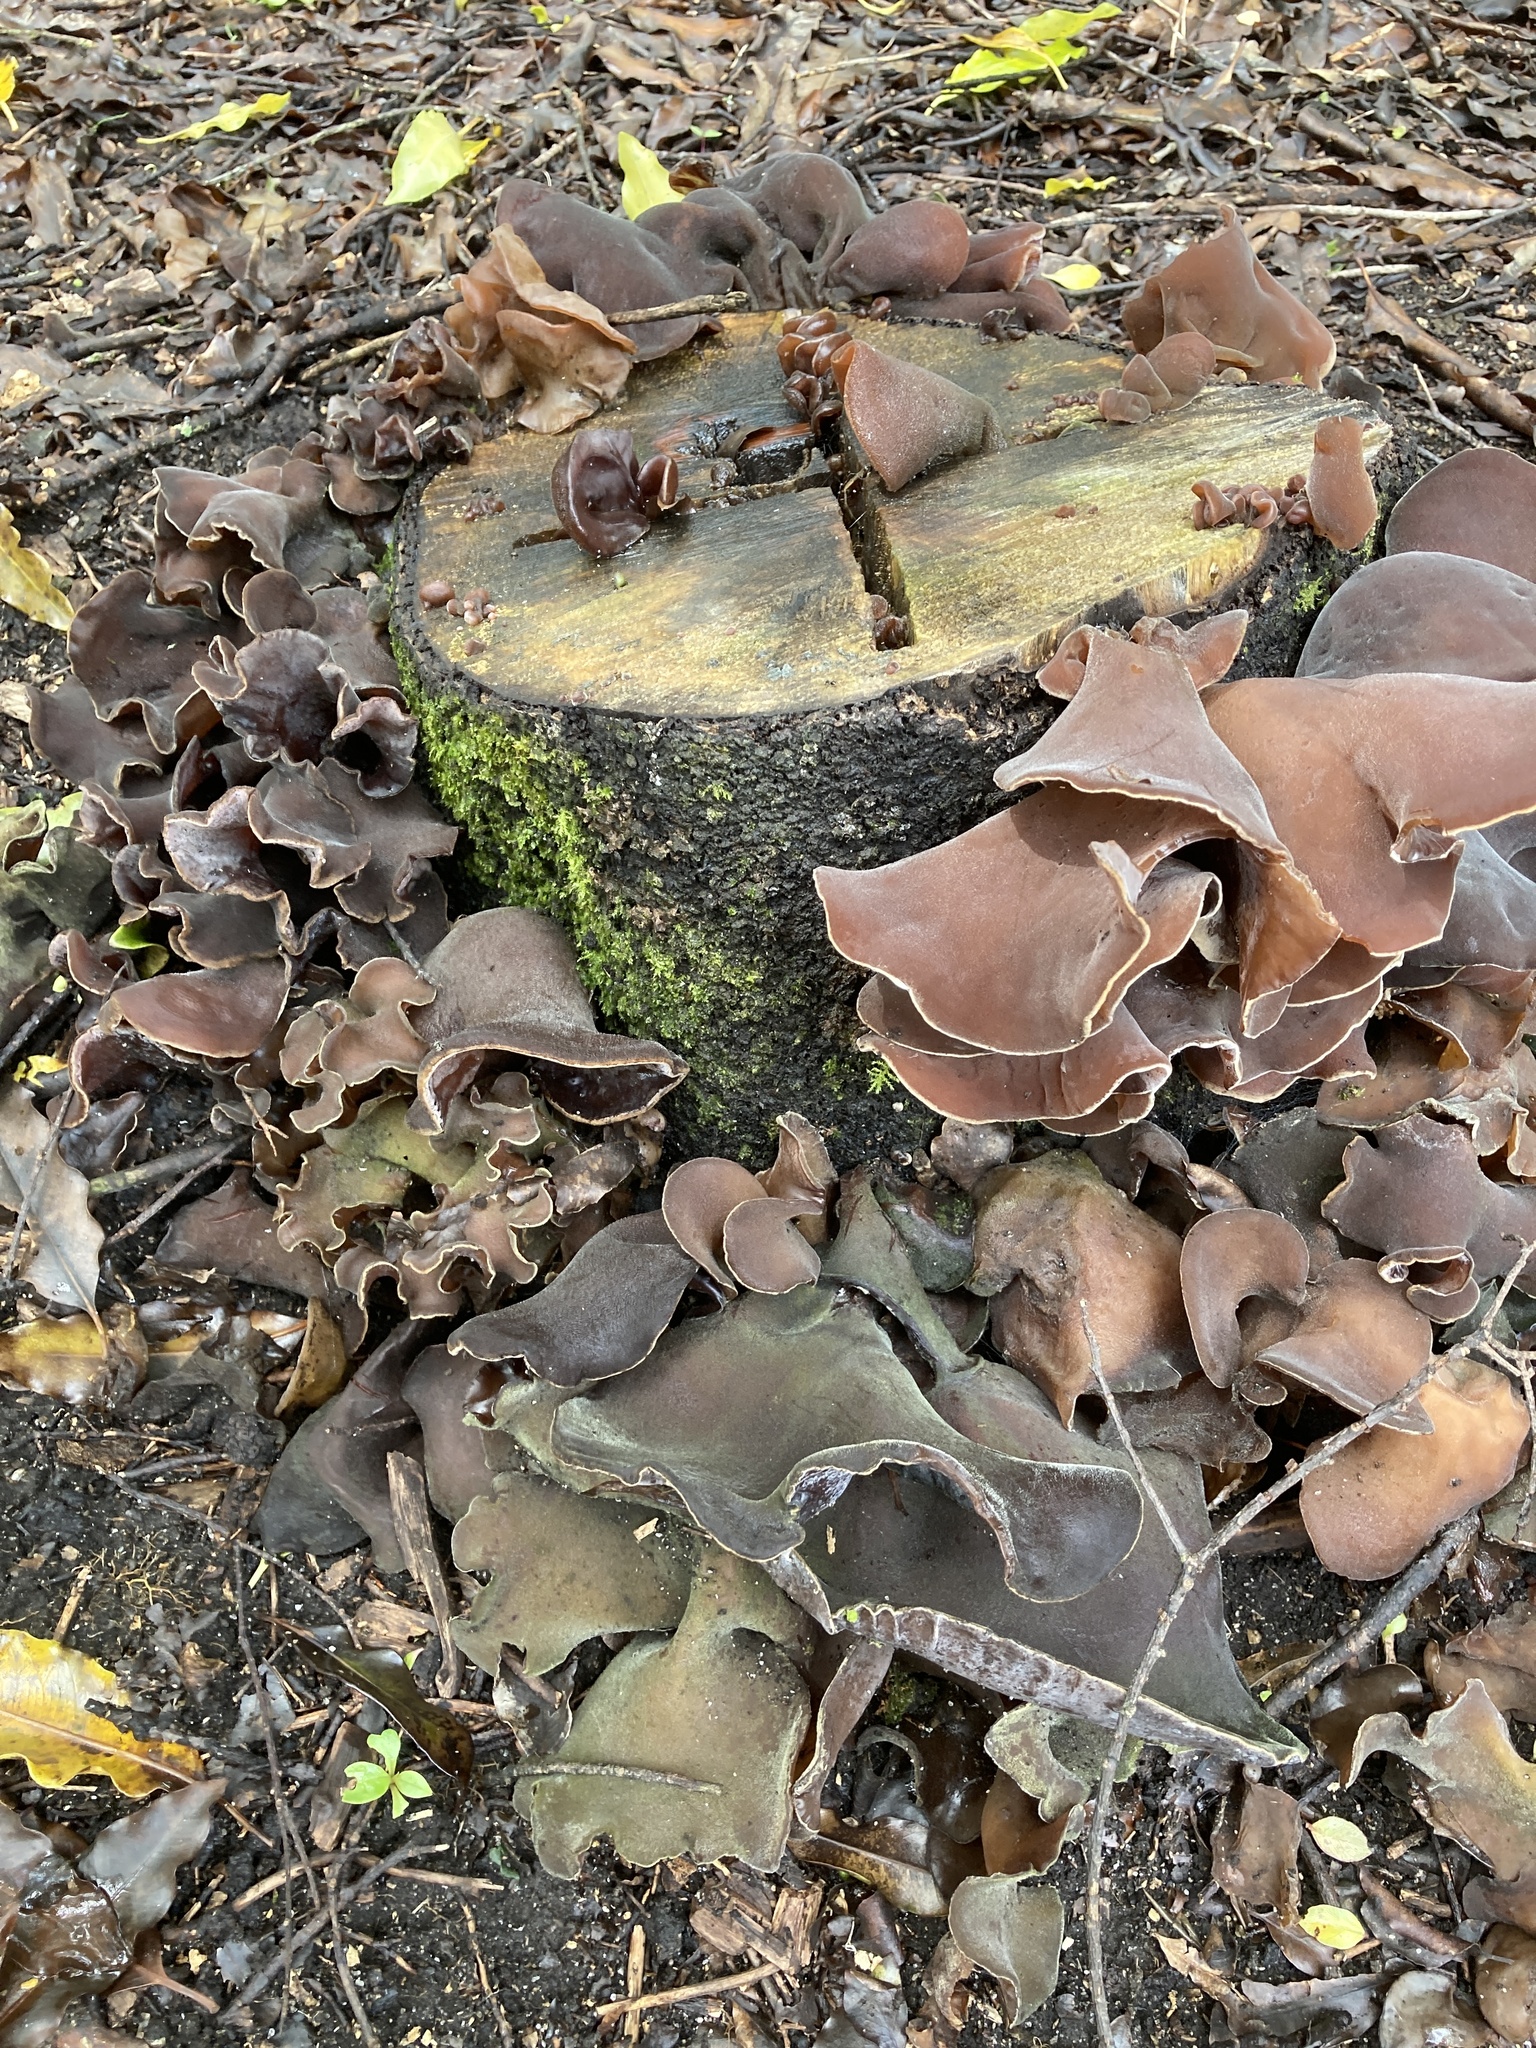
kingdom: Fungi
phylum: Basidiomycota
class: Agaricomycetes
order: Auriculariales
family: Auriculariaceae
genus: Auricularia
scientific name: Auricularia cornea
